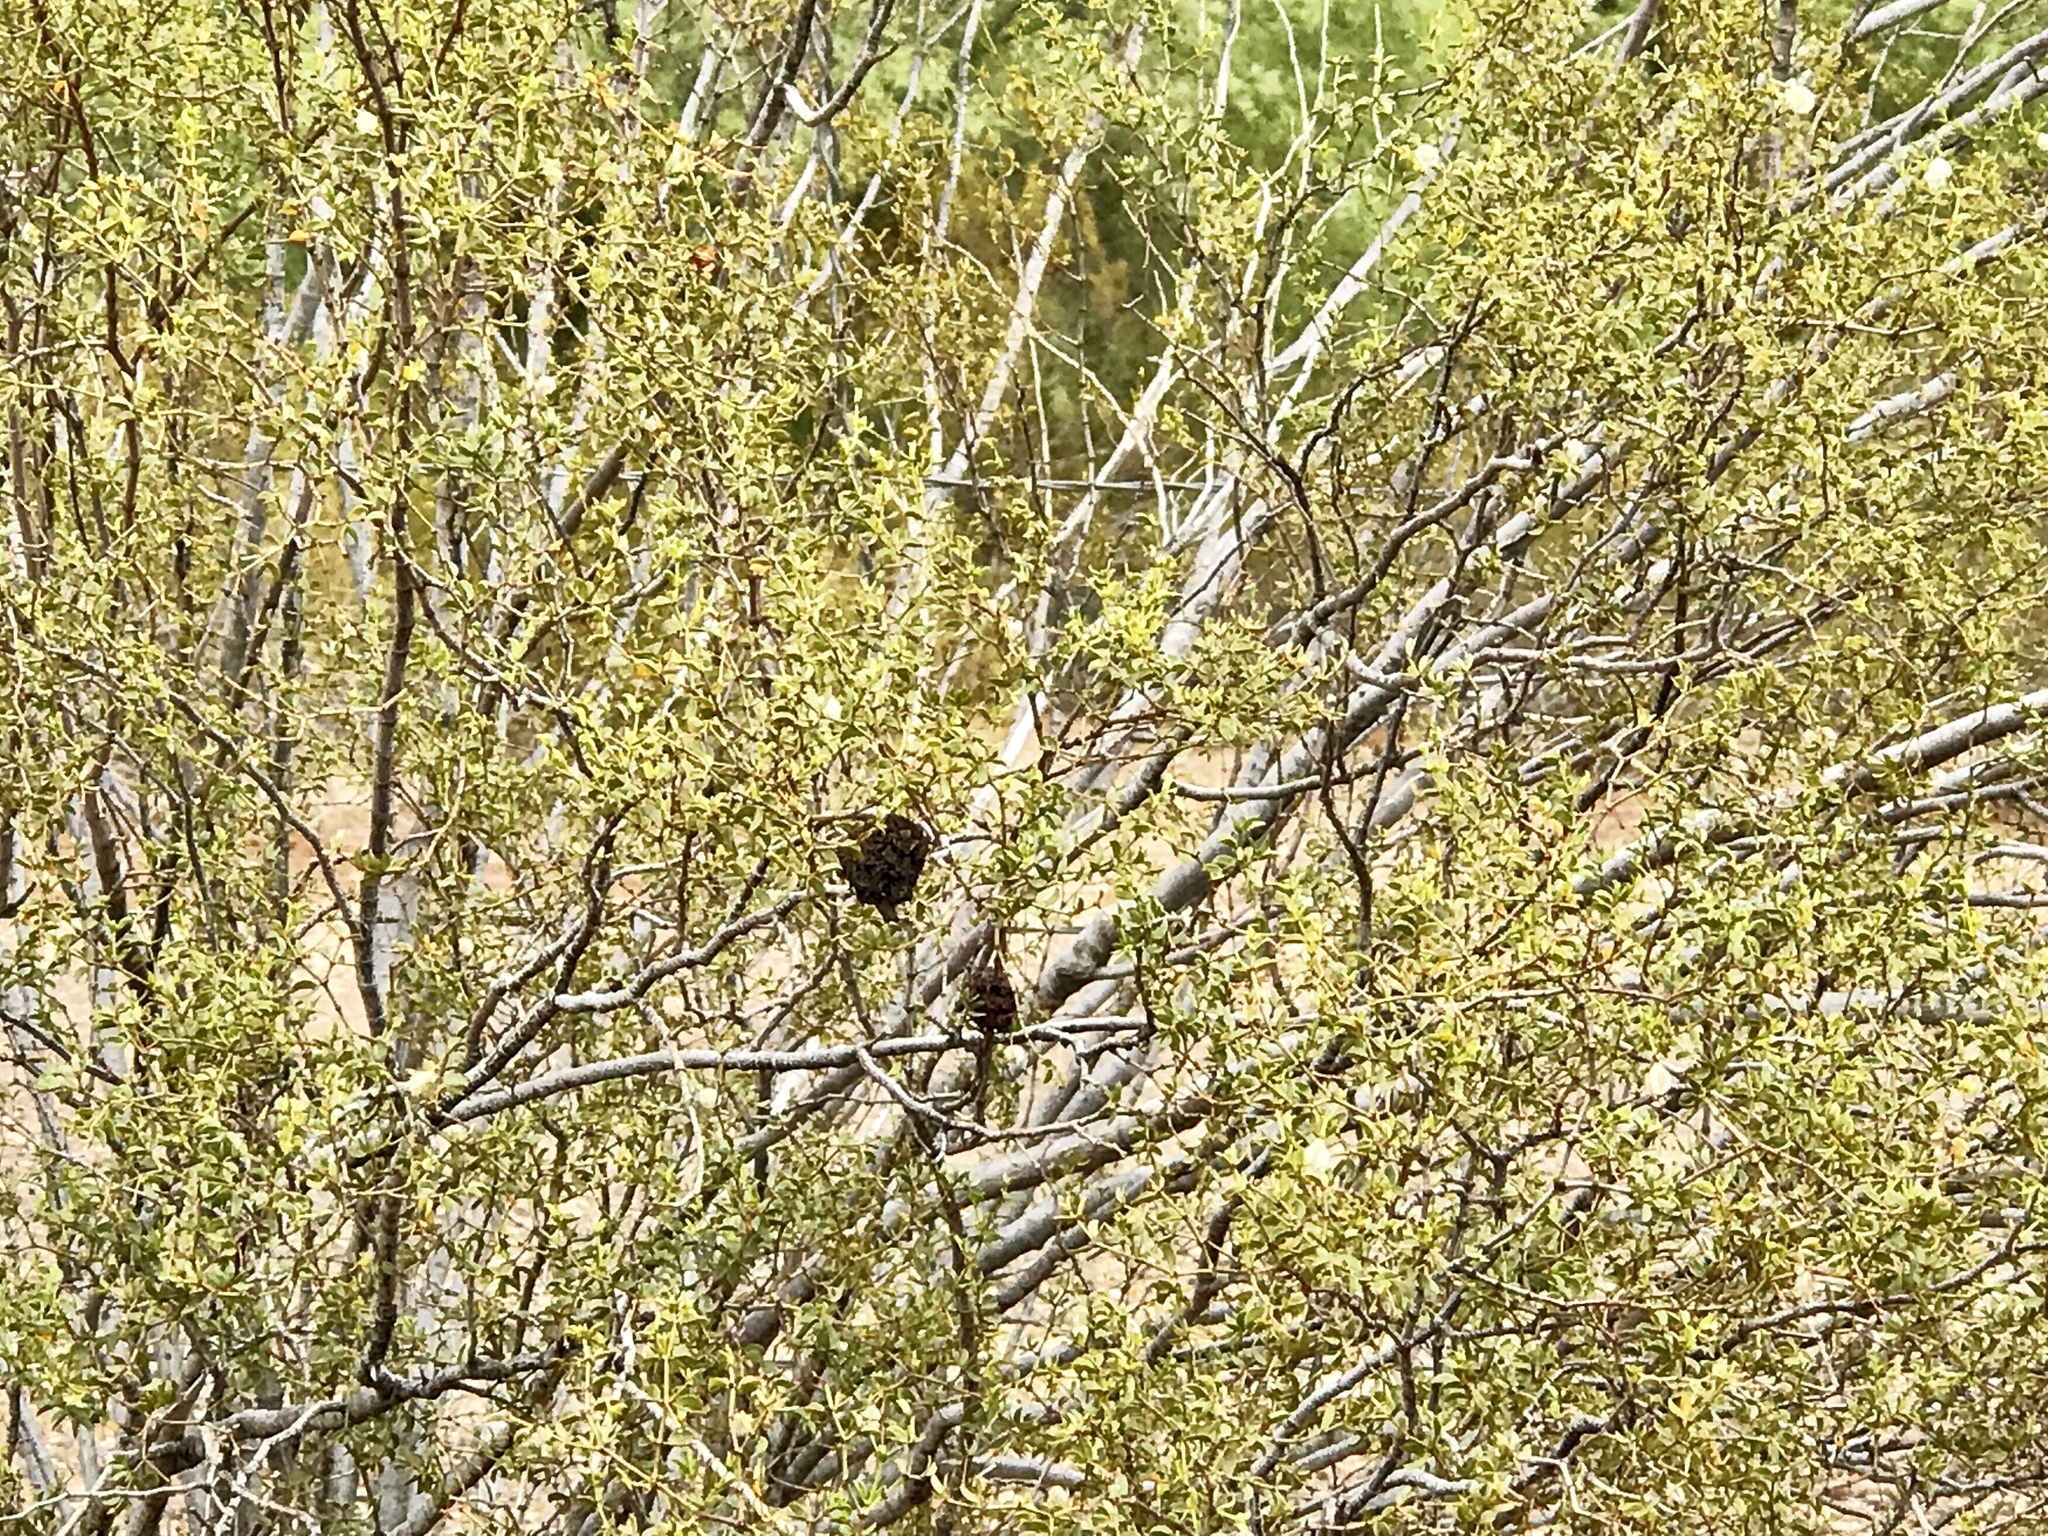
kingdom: Animalia
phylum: Arthropoda
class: Insecta
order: Diptera
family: Cecidomyiidae
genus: Asphondylia
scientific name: Asphondylia auripila
